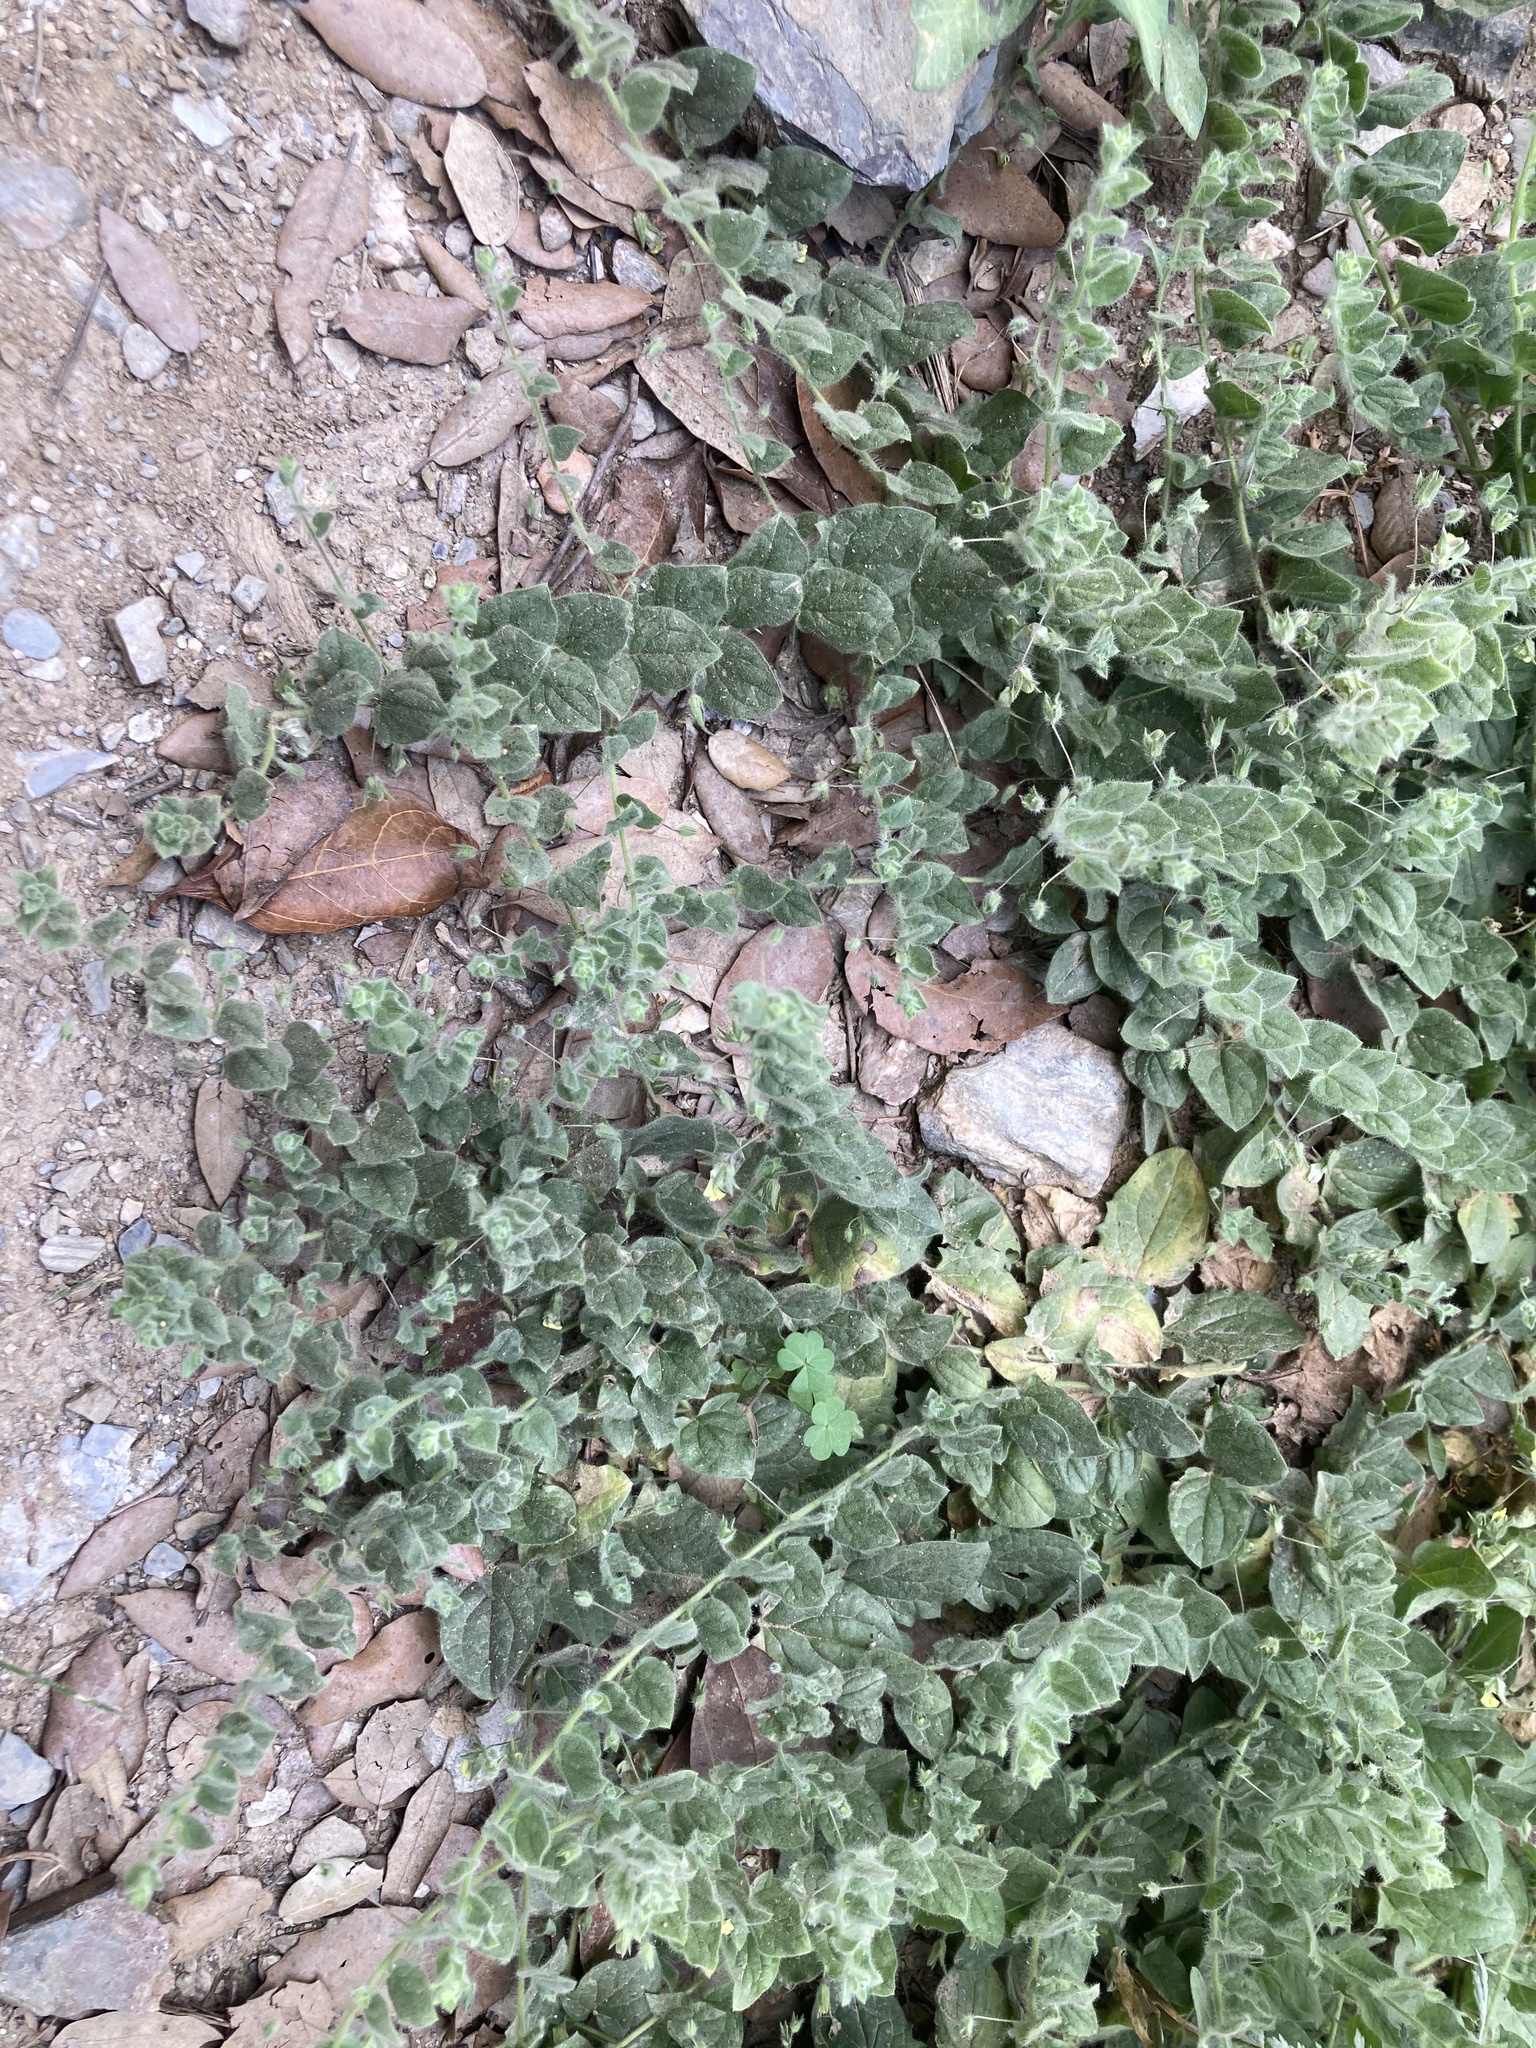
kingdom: Plantae
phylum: Tracheophyta
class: Magnoliopsida
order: Lamiales
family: Plantaginaceae
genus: Kickxia
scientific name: Kickxia elatine
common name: Sharp-leaved fluellen
